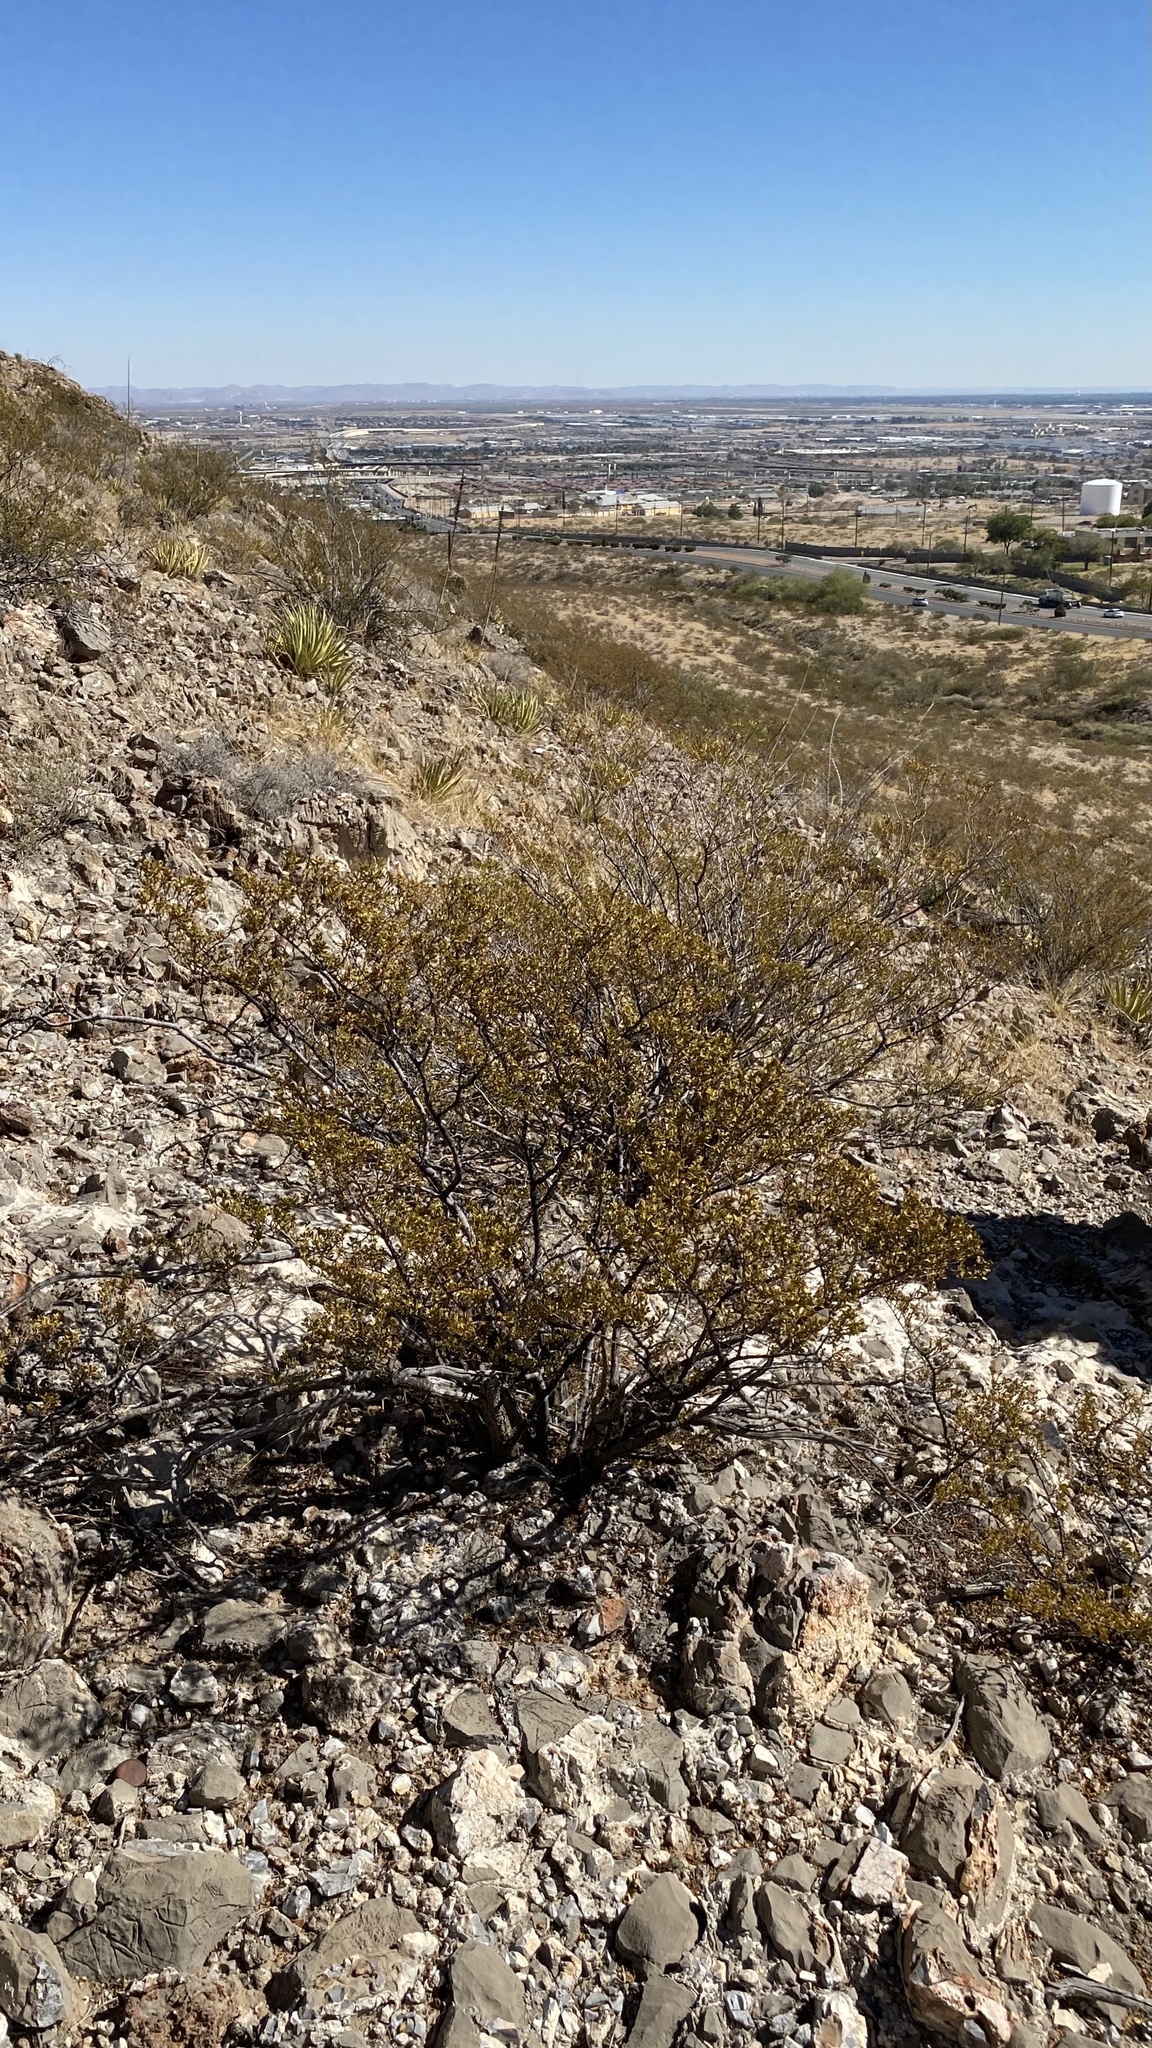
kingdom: Plantae
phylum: Tracheophyta
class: Magnoliopsida
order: Zygophyllales
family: Zygophyllaceae
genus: Larrea
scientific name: Larrea tridentata
